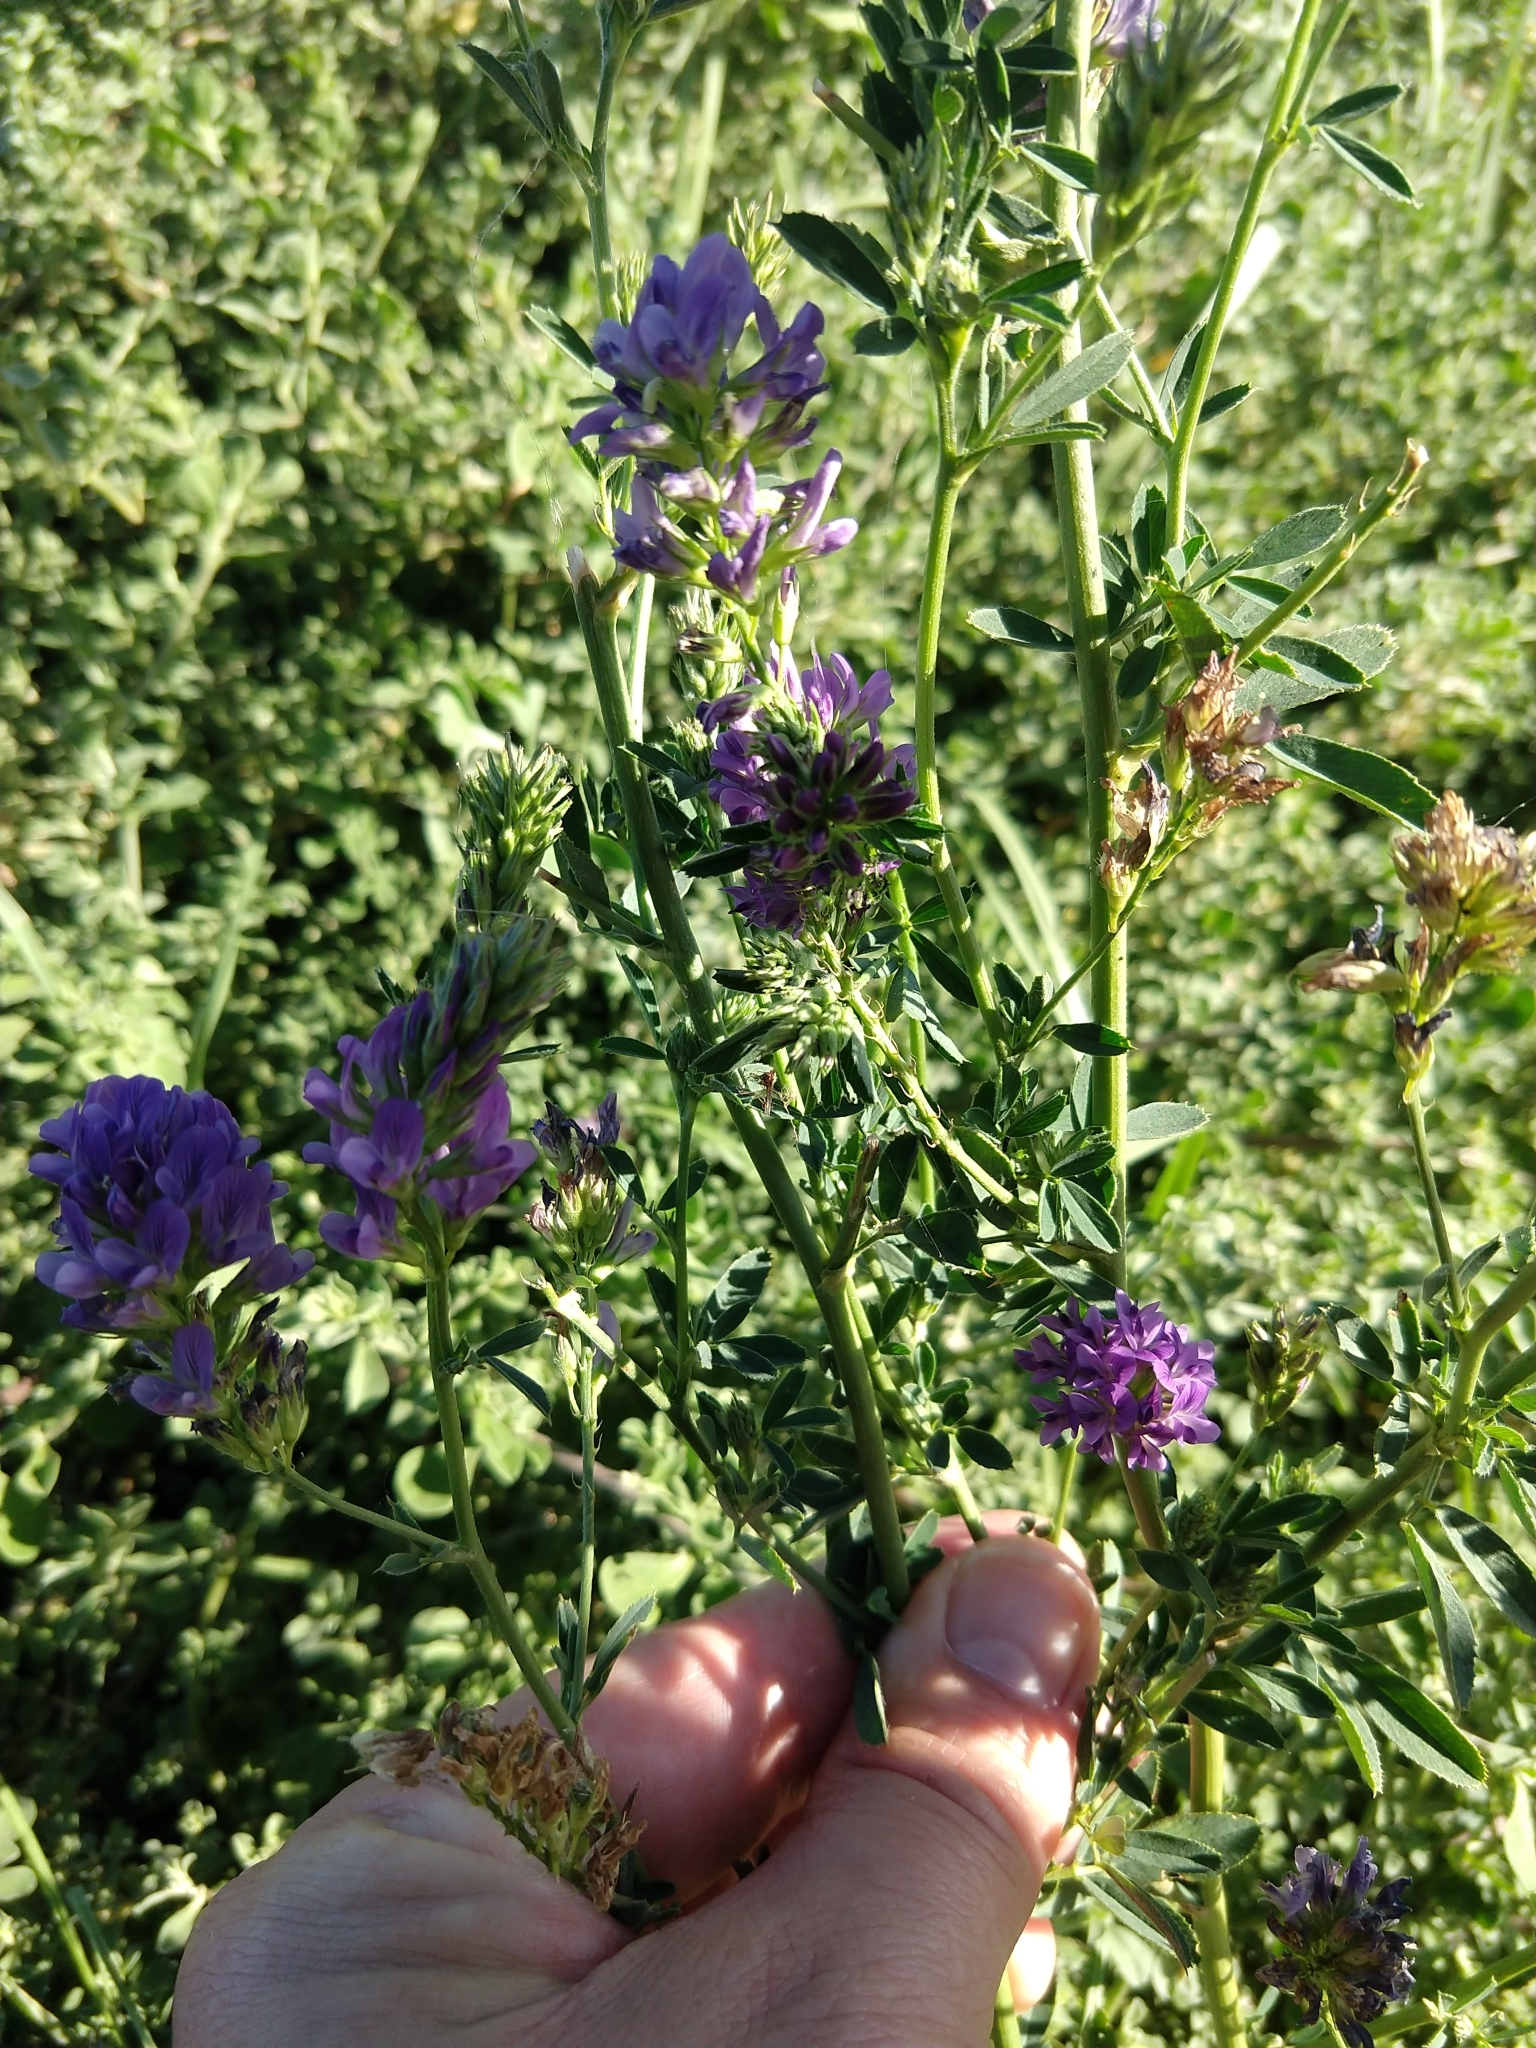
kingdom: Plantae
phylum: Tracheophyta
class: Magnoliopsida
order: Fabales
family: Fabaceae
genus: Medicago
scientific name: Medicago sativa
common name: Alfalfa
